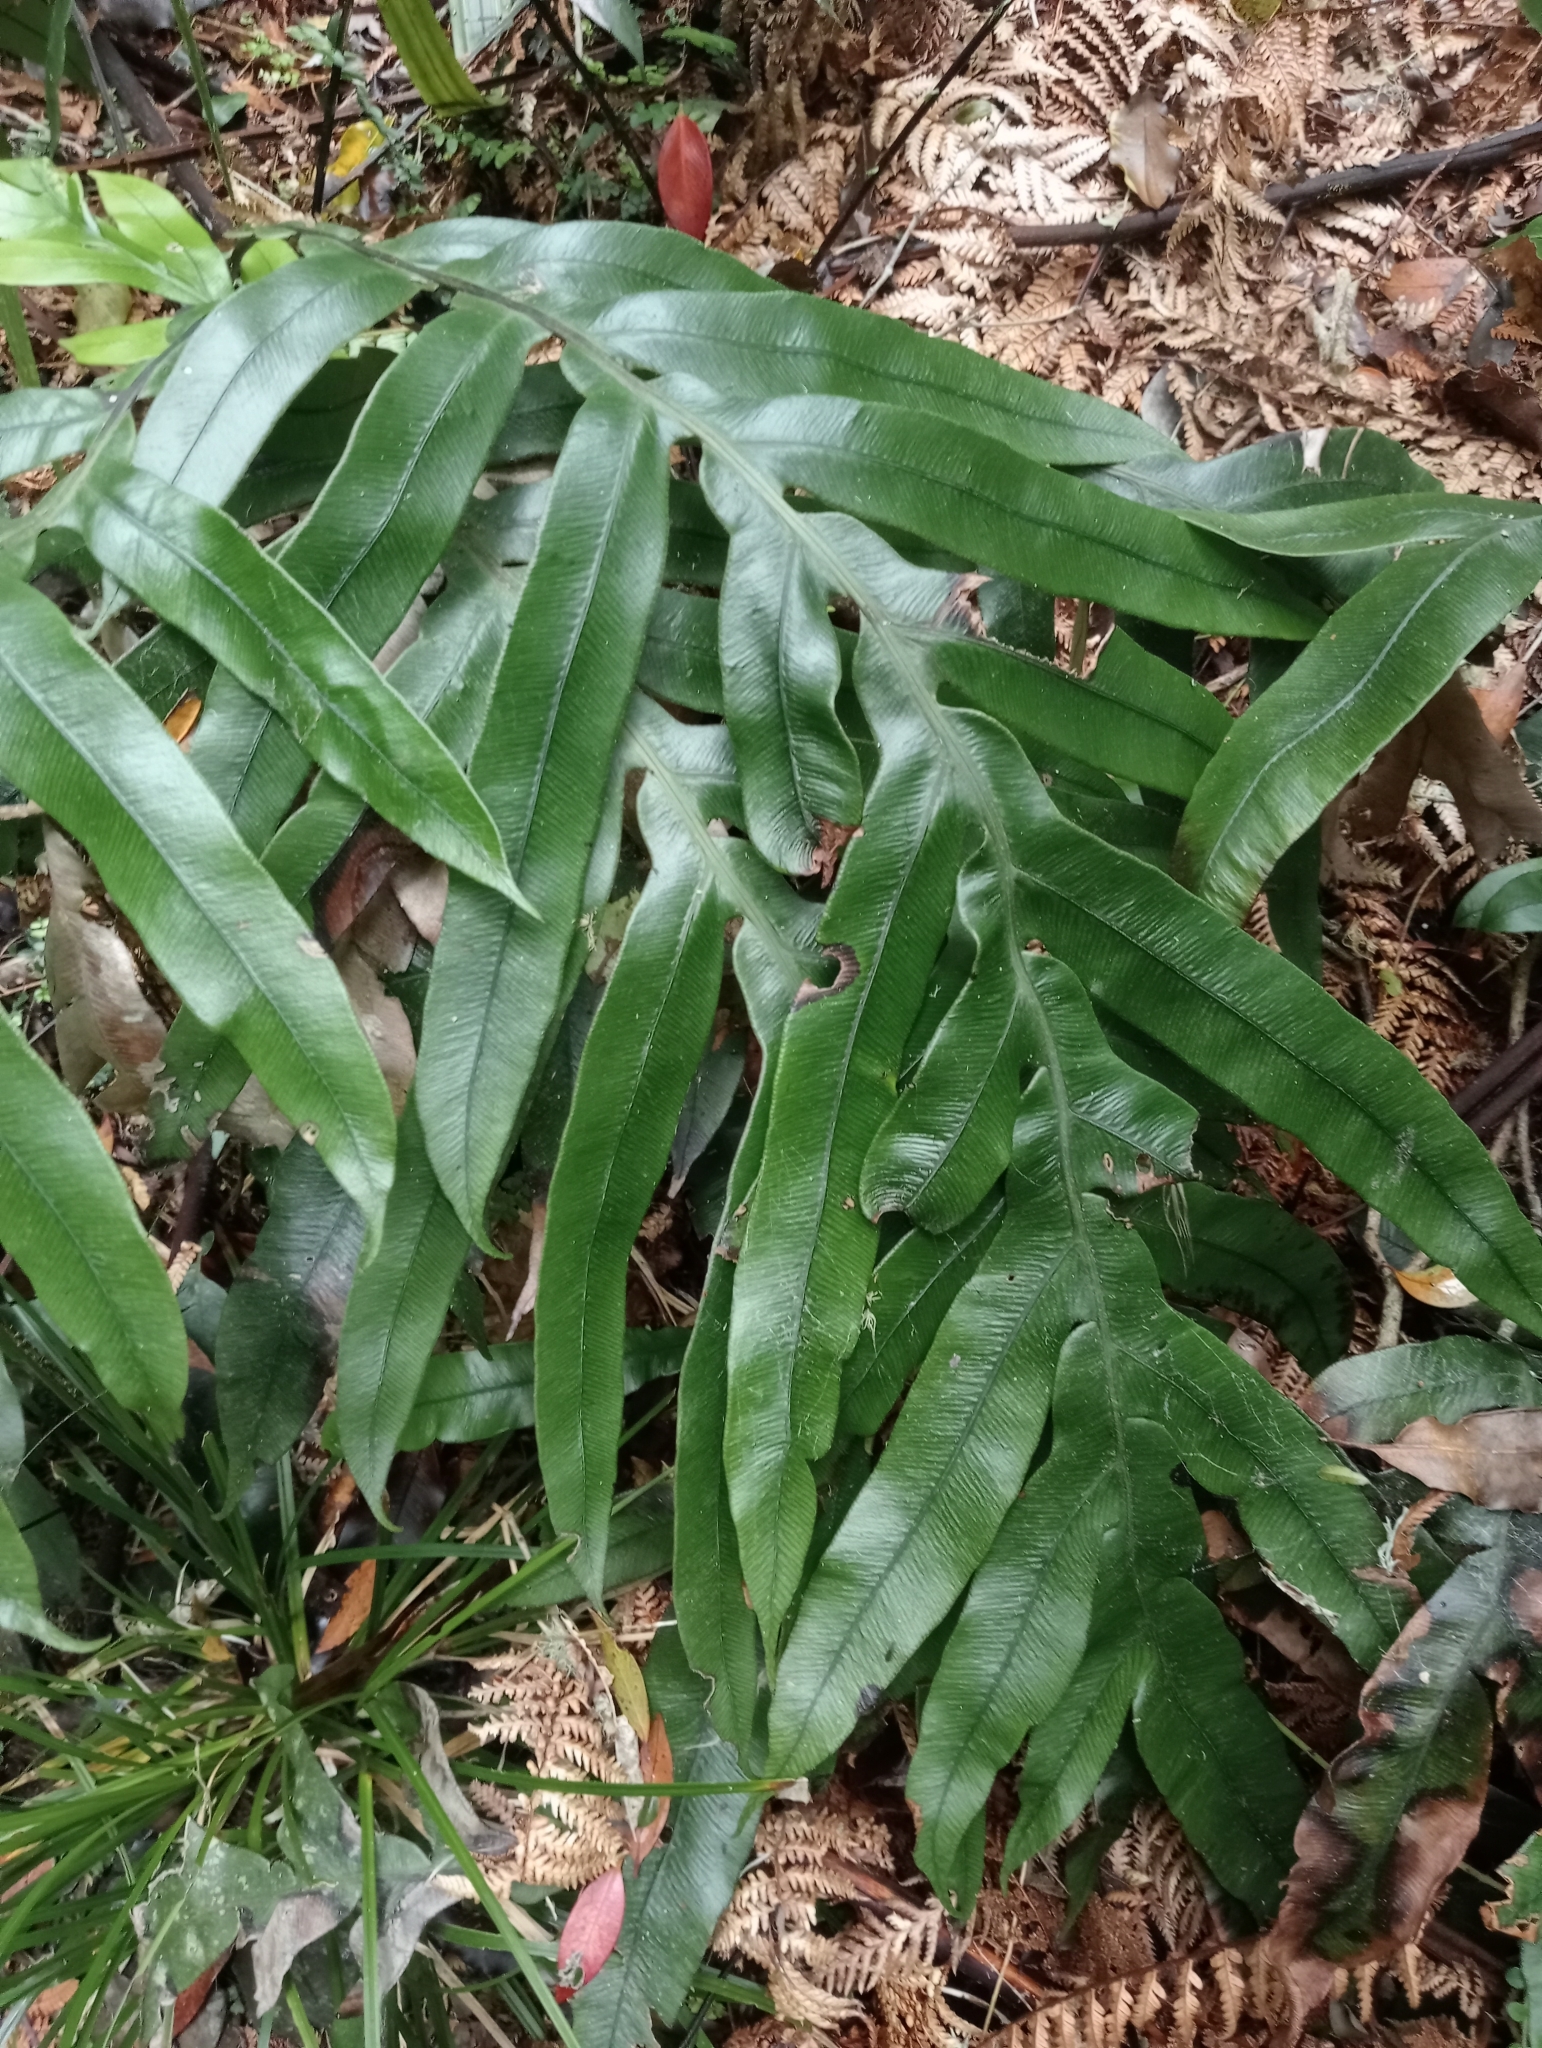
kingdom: Plantae
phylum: Tracheophyta
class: Polypodiopsida
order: Polypodiales
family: Blechnaceae
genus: Austroblechnum
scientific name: Austroblechnum colensoi
